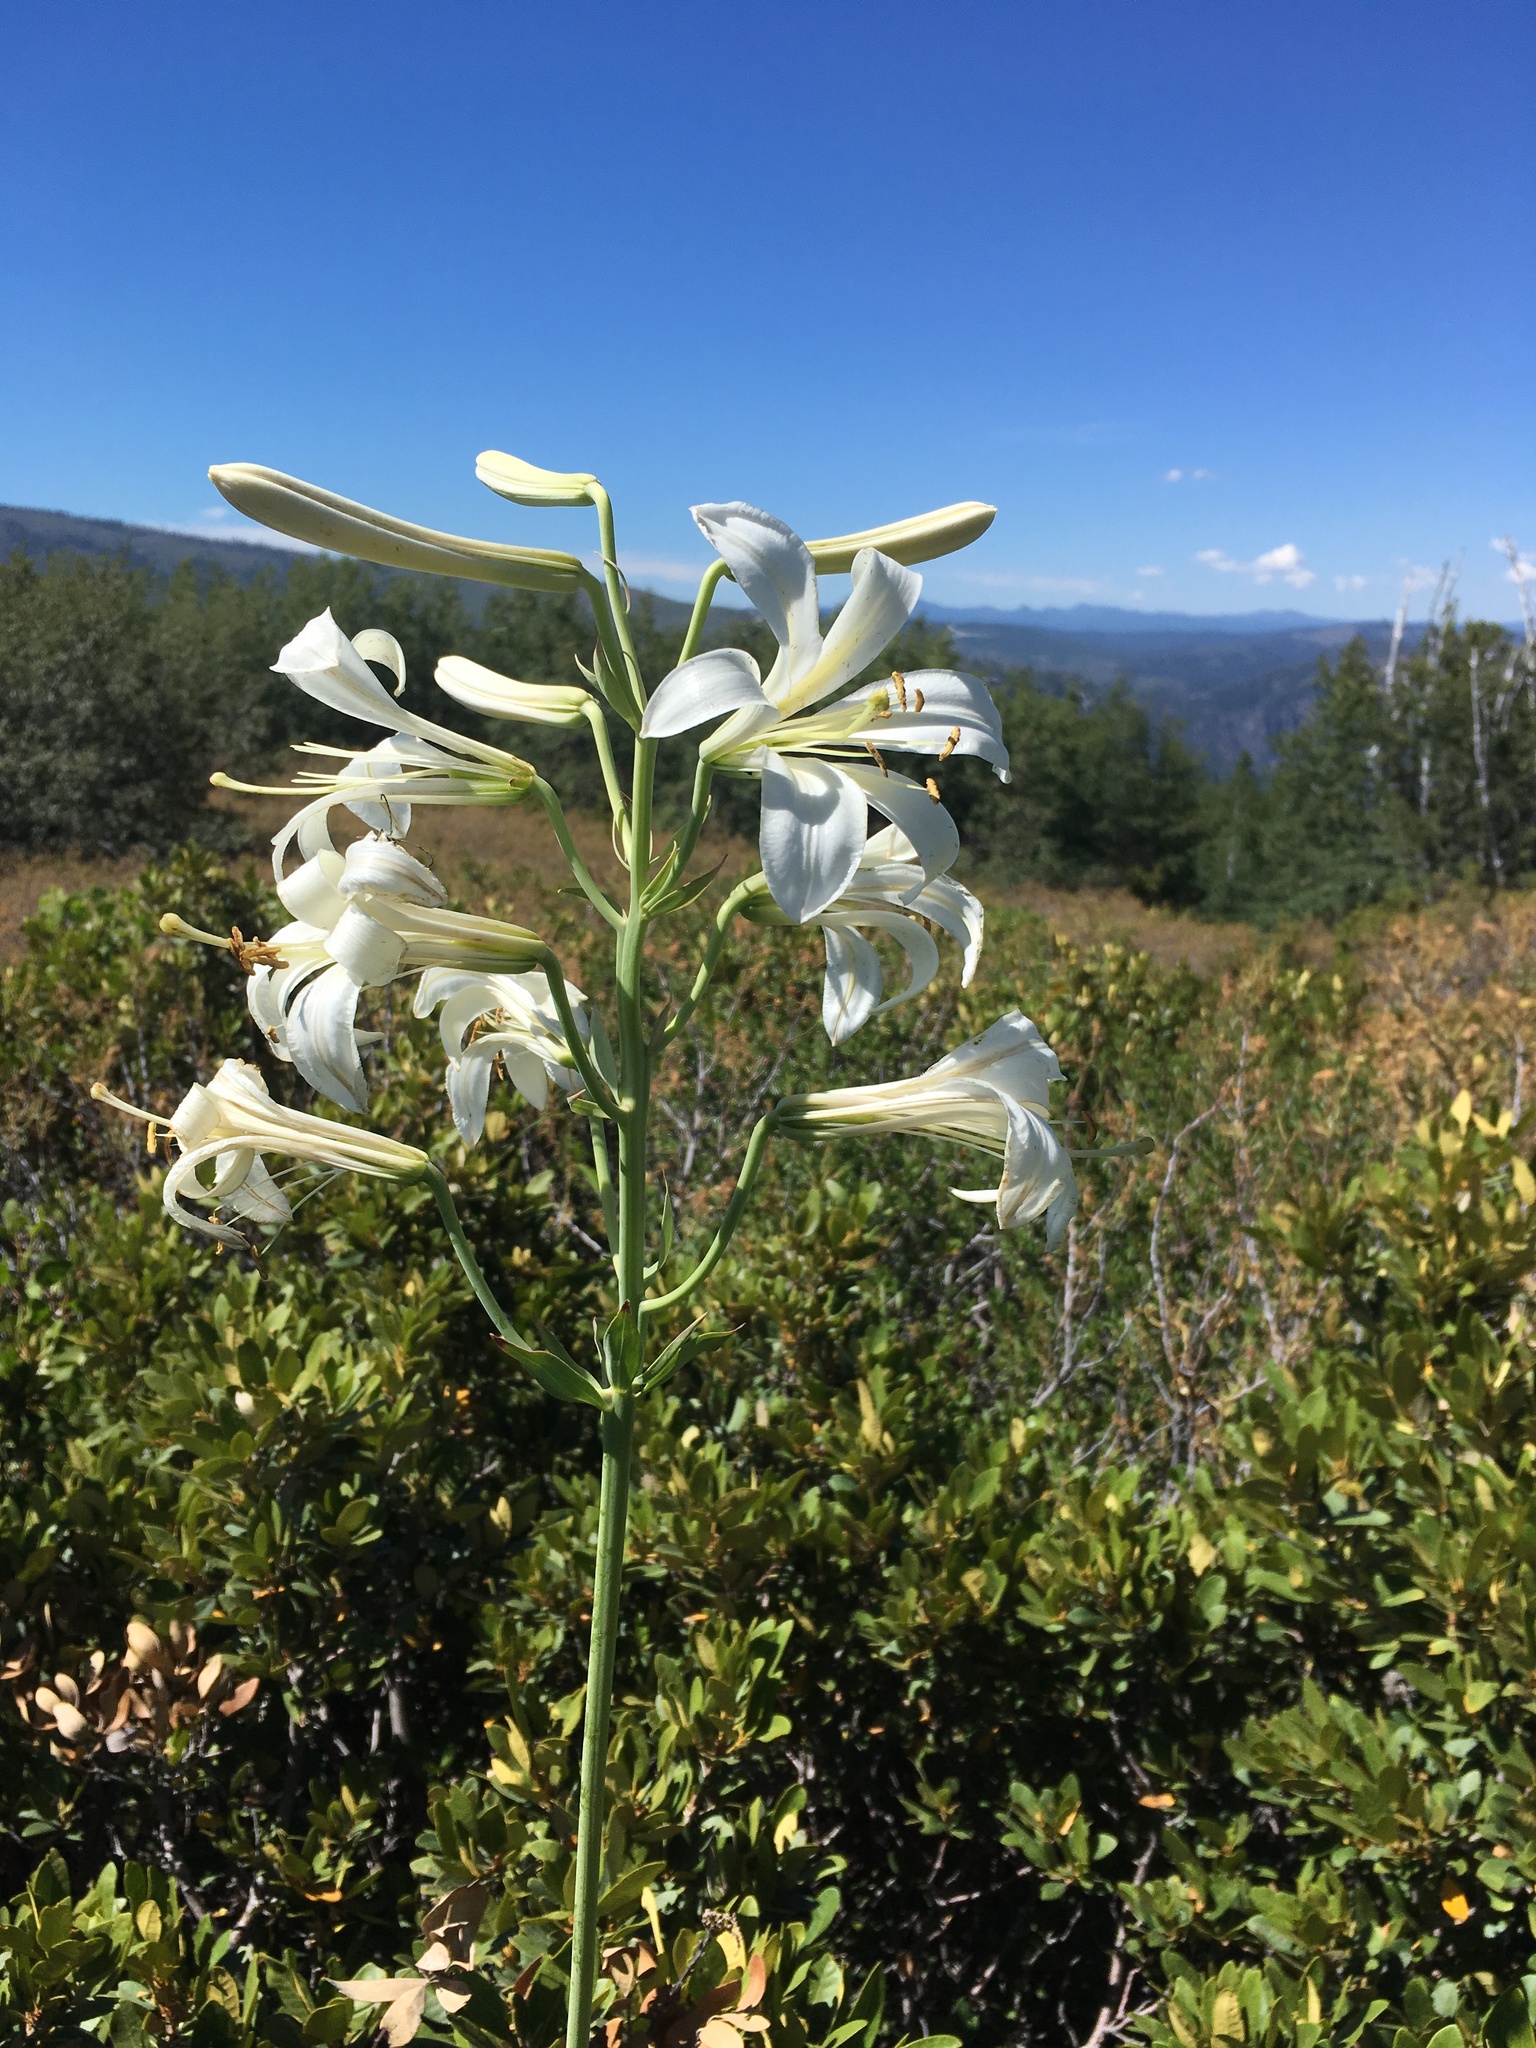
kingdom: Plantae
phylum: Tracheophyta
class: Liliopsida
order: Liliales
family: Liliaceae
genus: Lilium
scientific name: Lilium washingtonianum
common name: Washington lily
